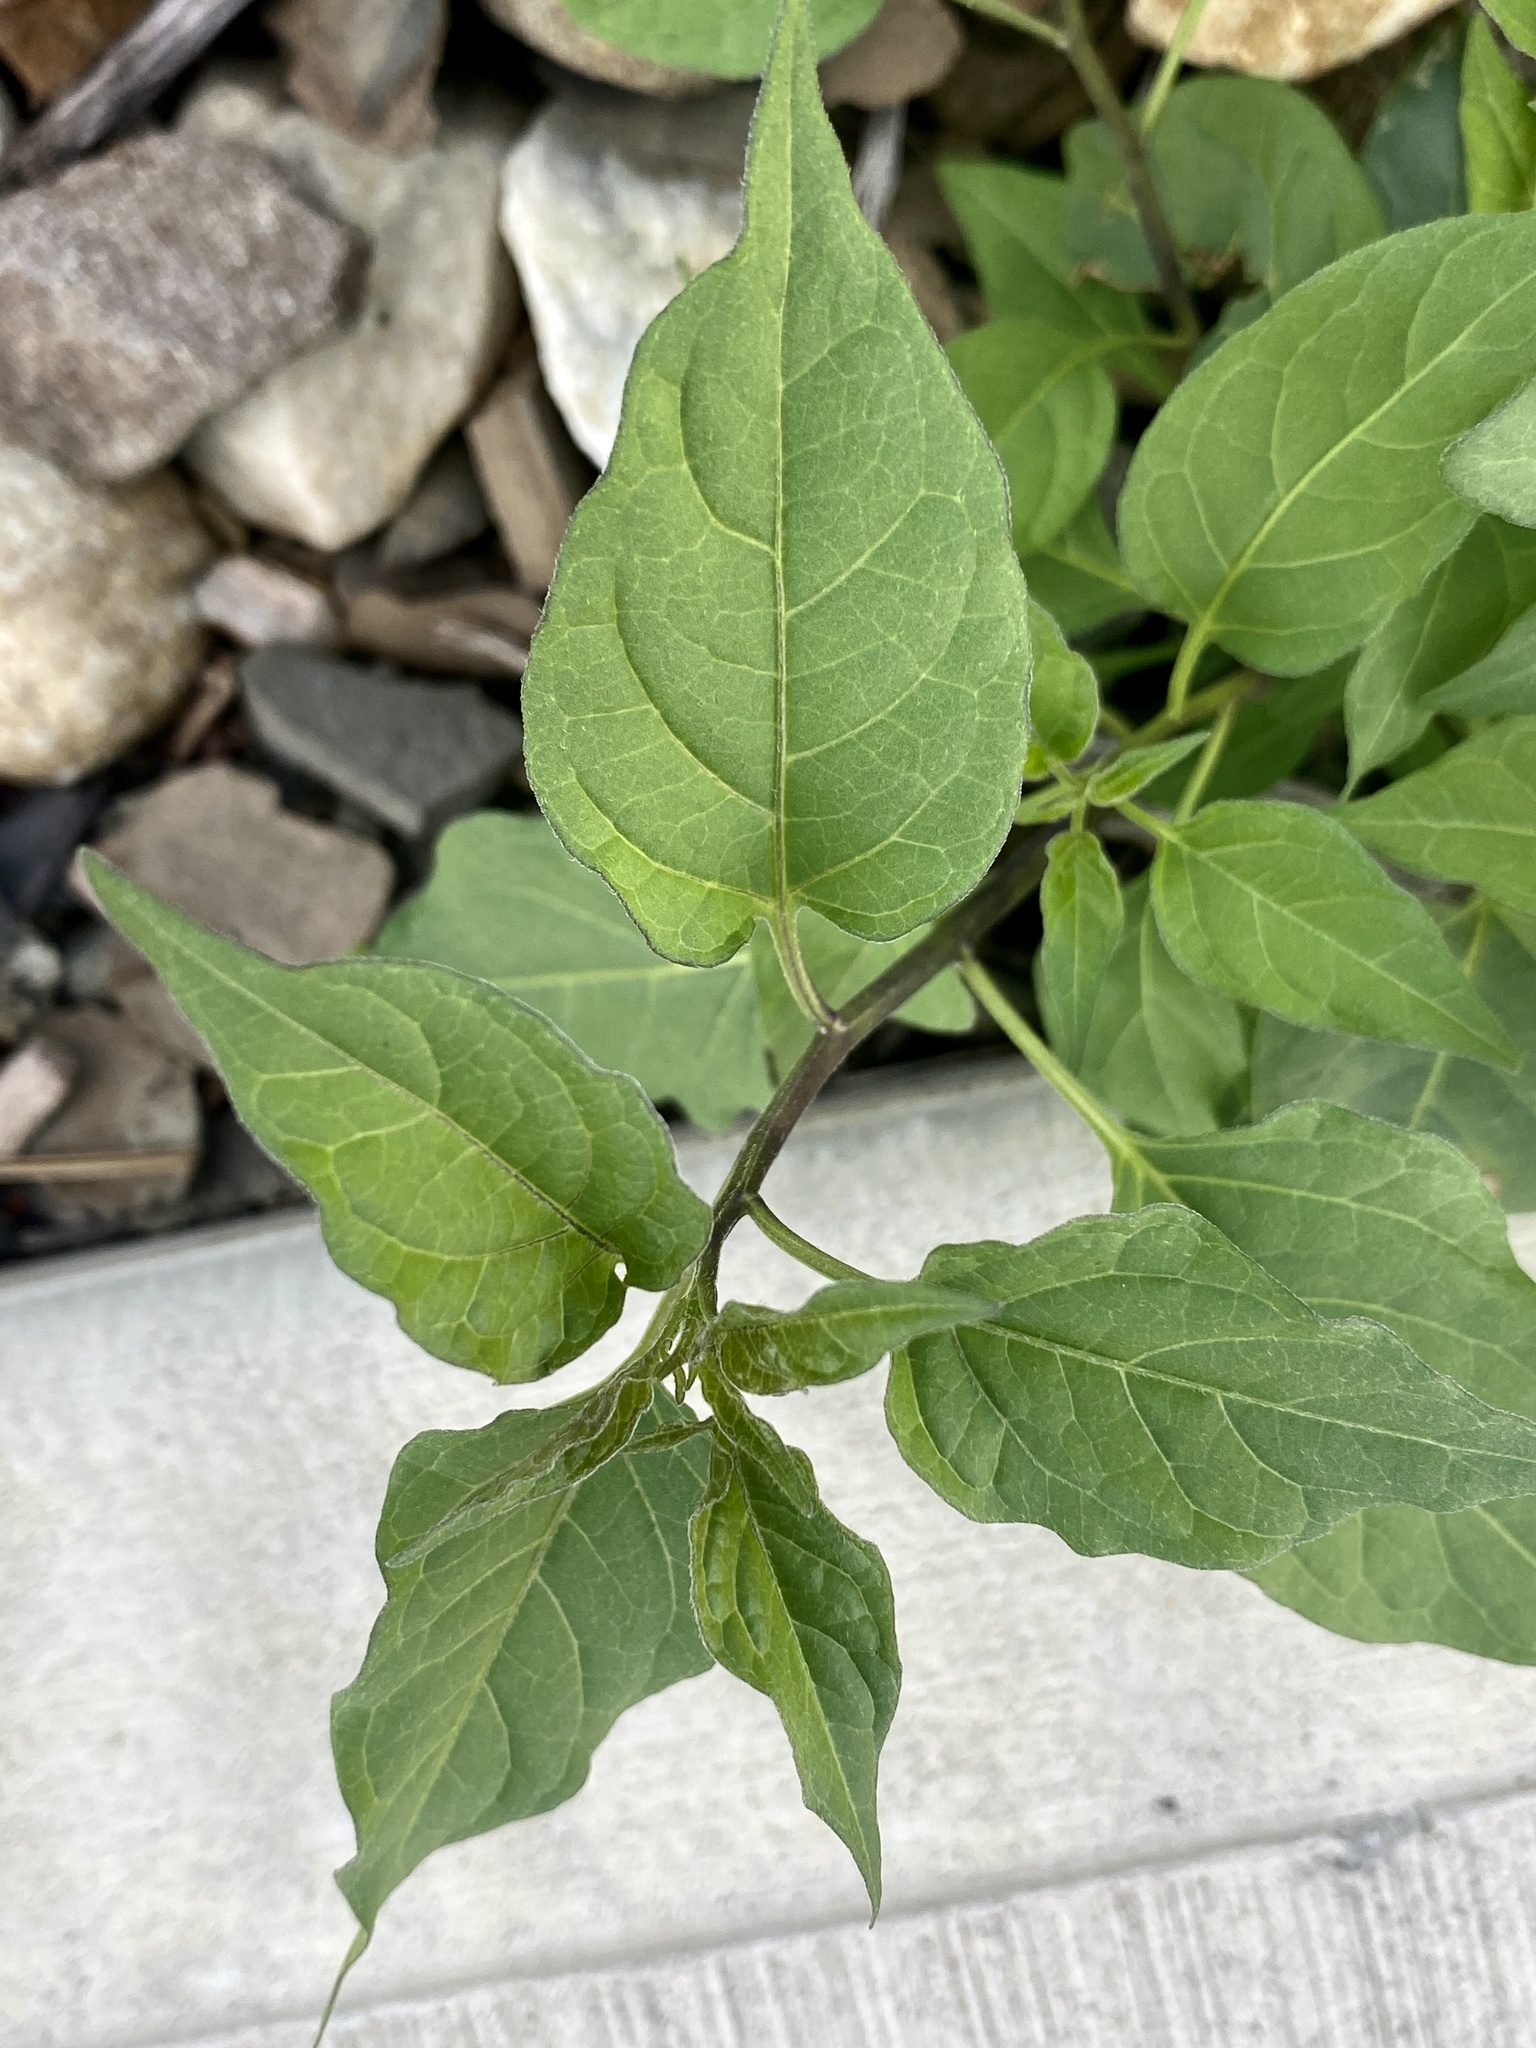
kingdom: Plantae
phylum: Tracheophyta
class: Magnoliopsida
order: Solanales
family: Solanaceae
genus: Solanum
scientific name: Solanum dulcamara
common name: Climbing nightshade
